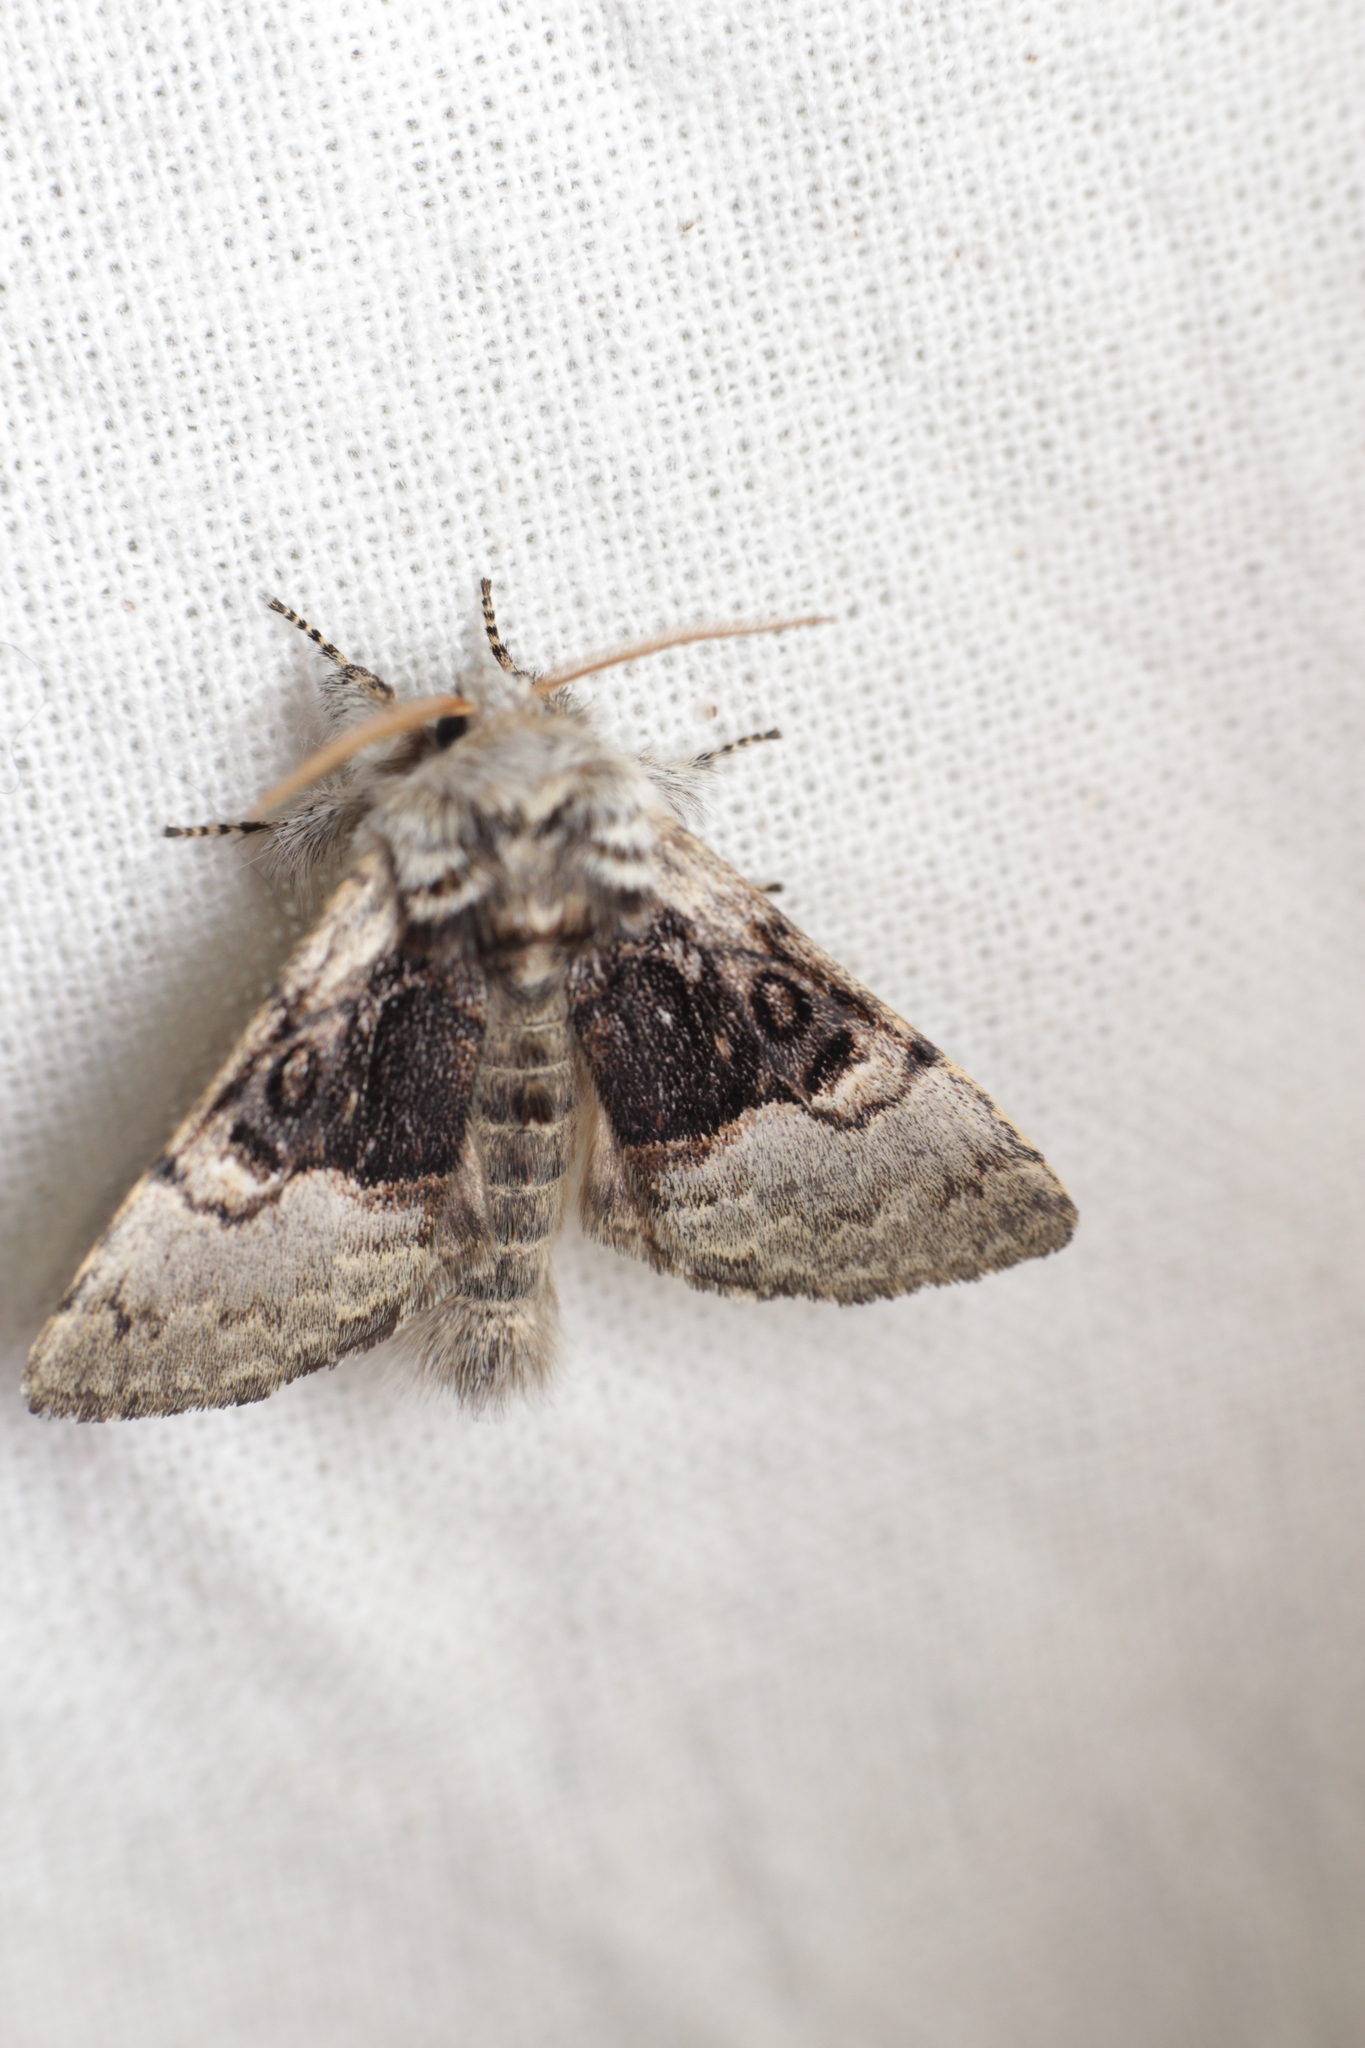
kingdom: Animalia
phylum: Arthropoda
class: Insecta
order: Lepidoptera
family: Noctuidae
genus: Colocasia
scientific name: Colocasia coryli
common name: Nut-tree tussock
